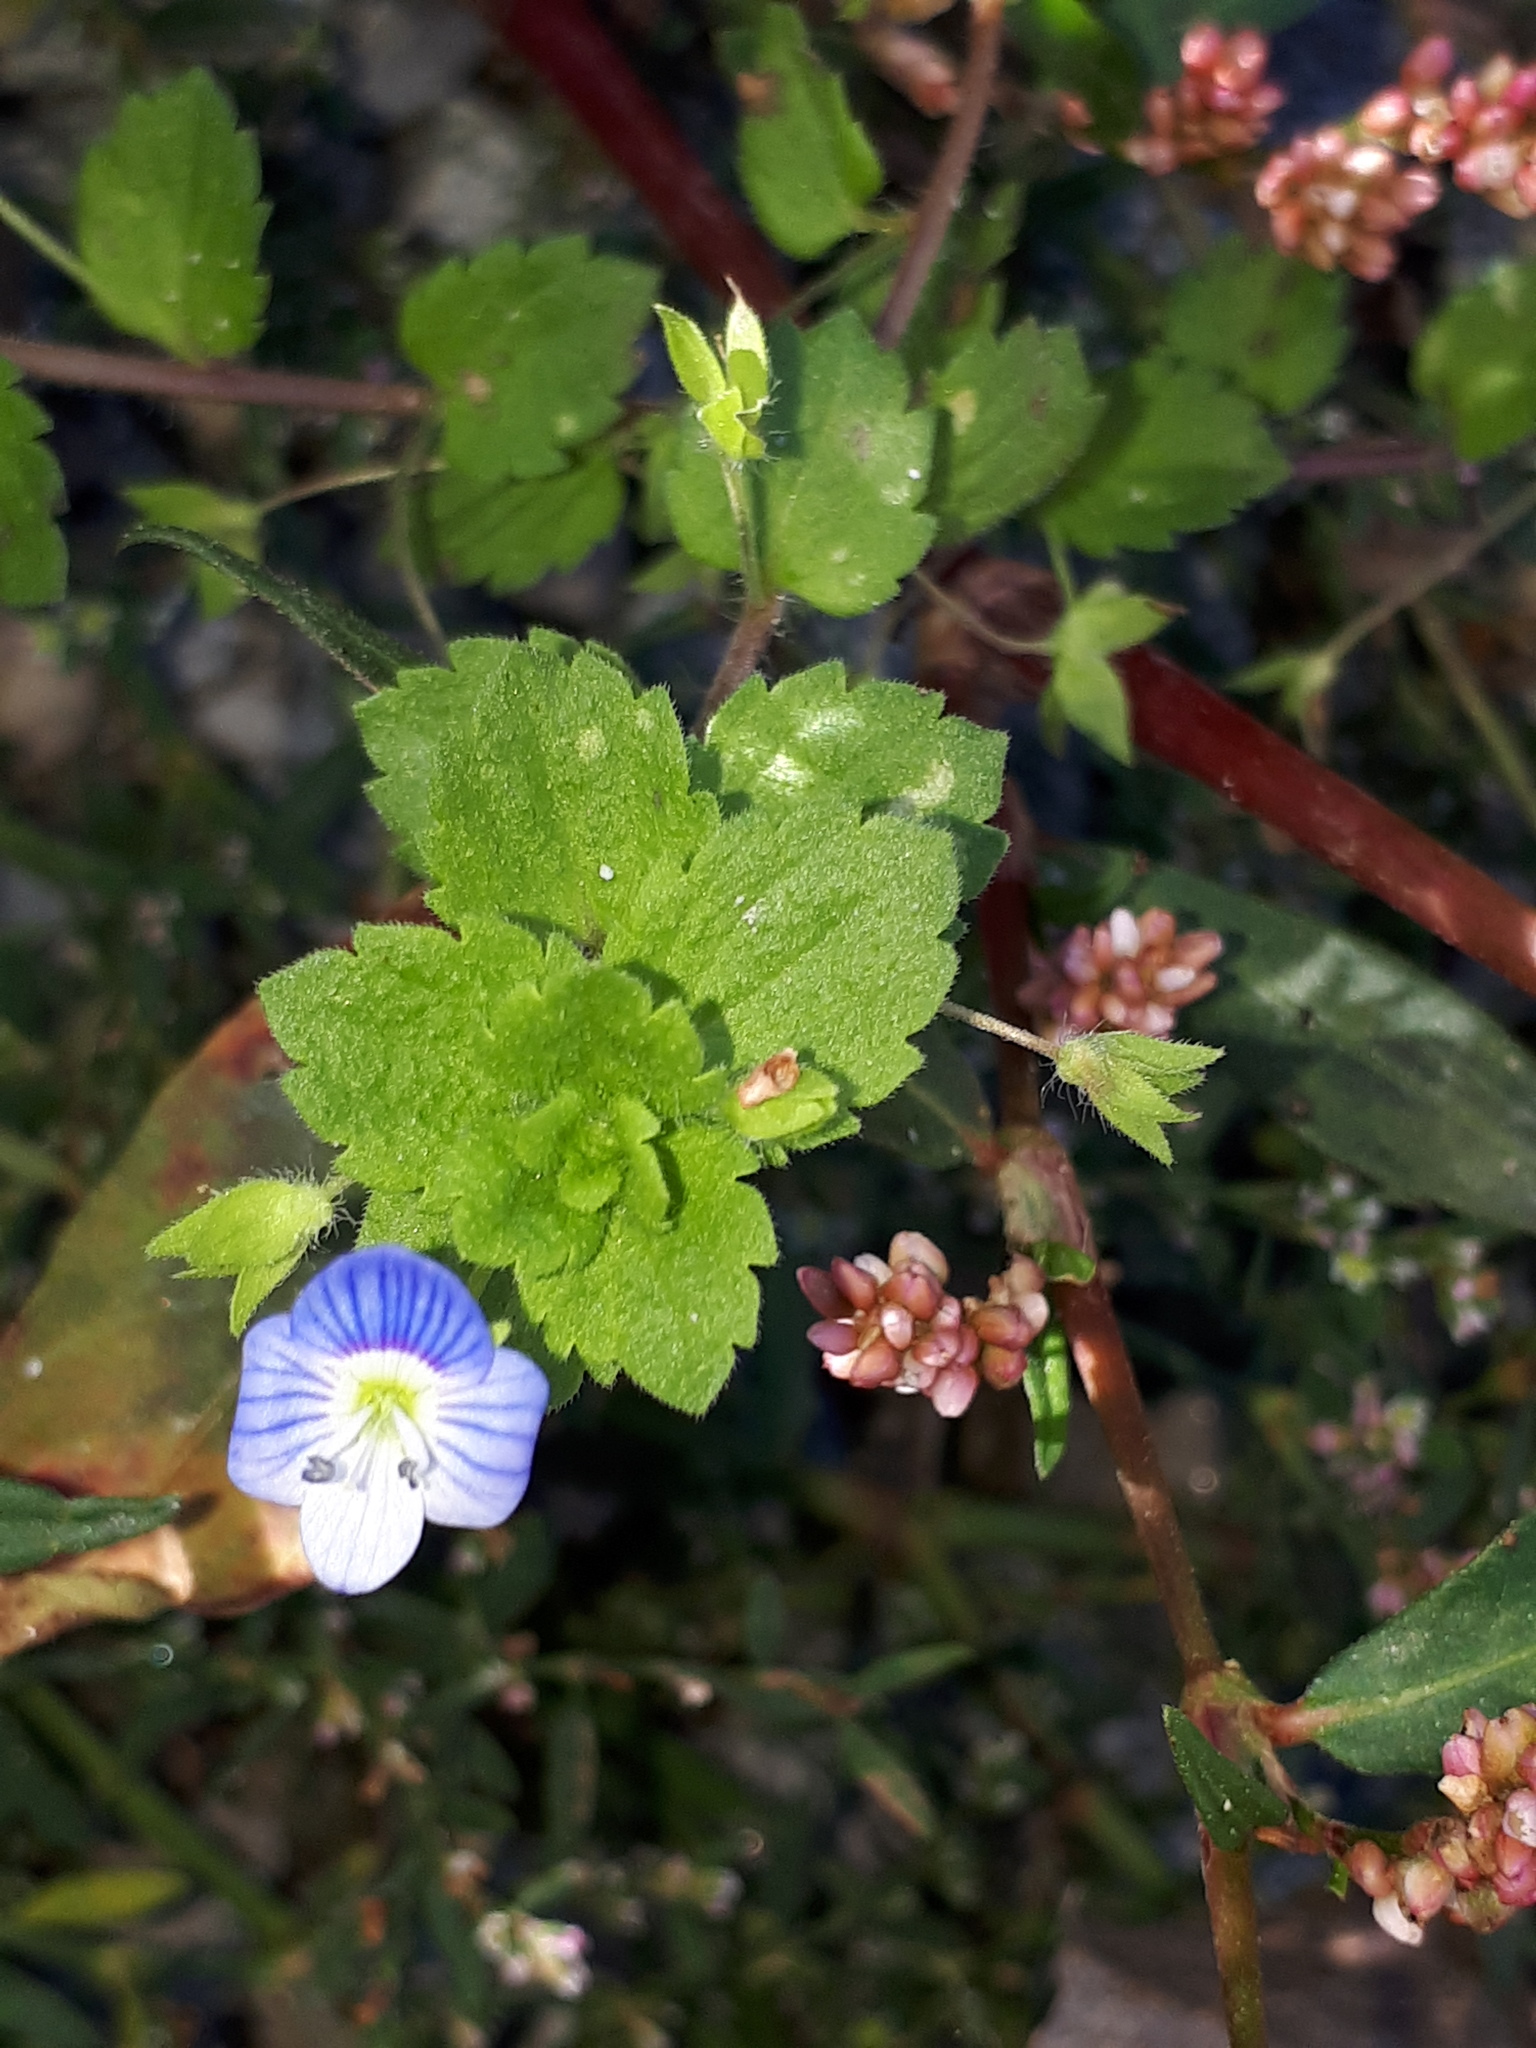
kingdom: Plantae
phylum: Tracheophyta
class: Magnoliopsida
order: Lamiales
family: Plantaginaceae
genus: Veronica
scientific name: Veronica persica
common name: Common field-speedwell
